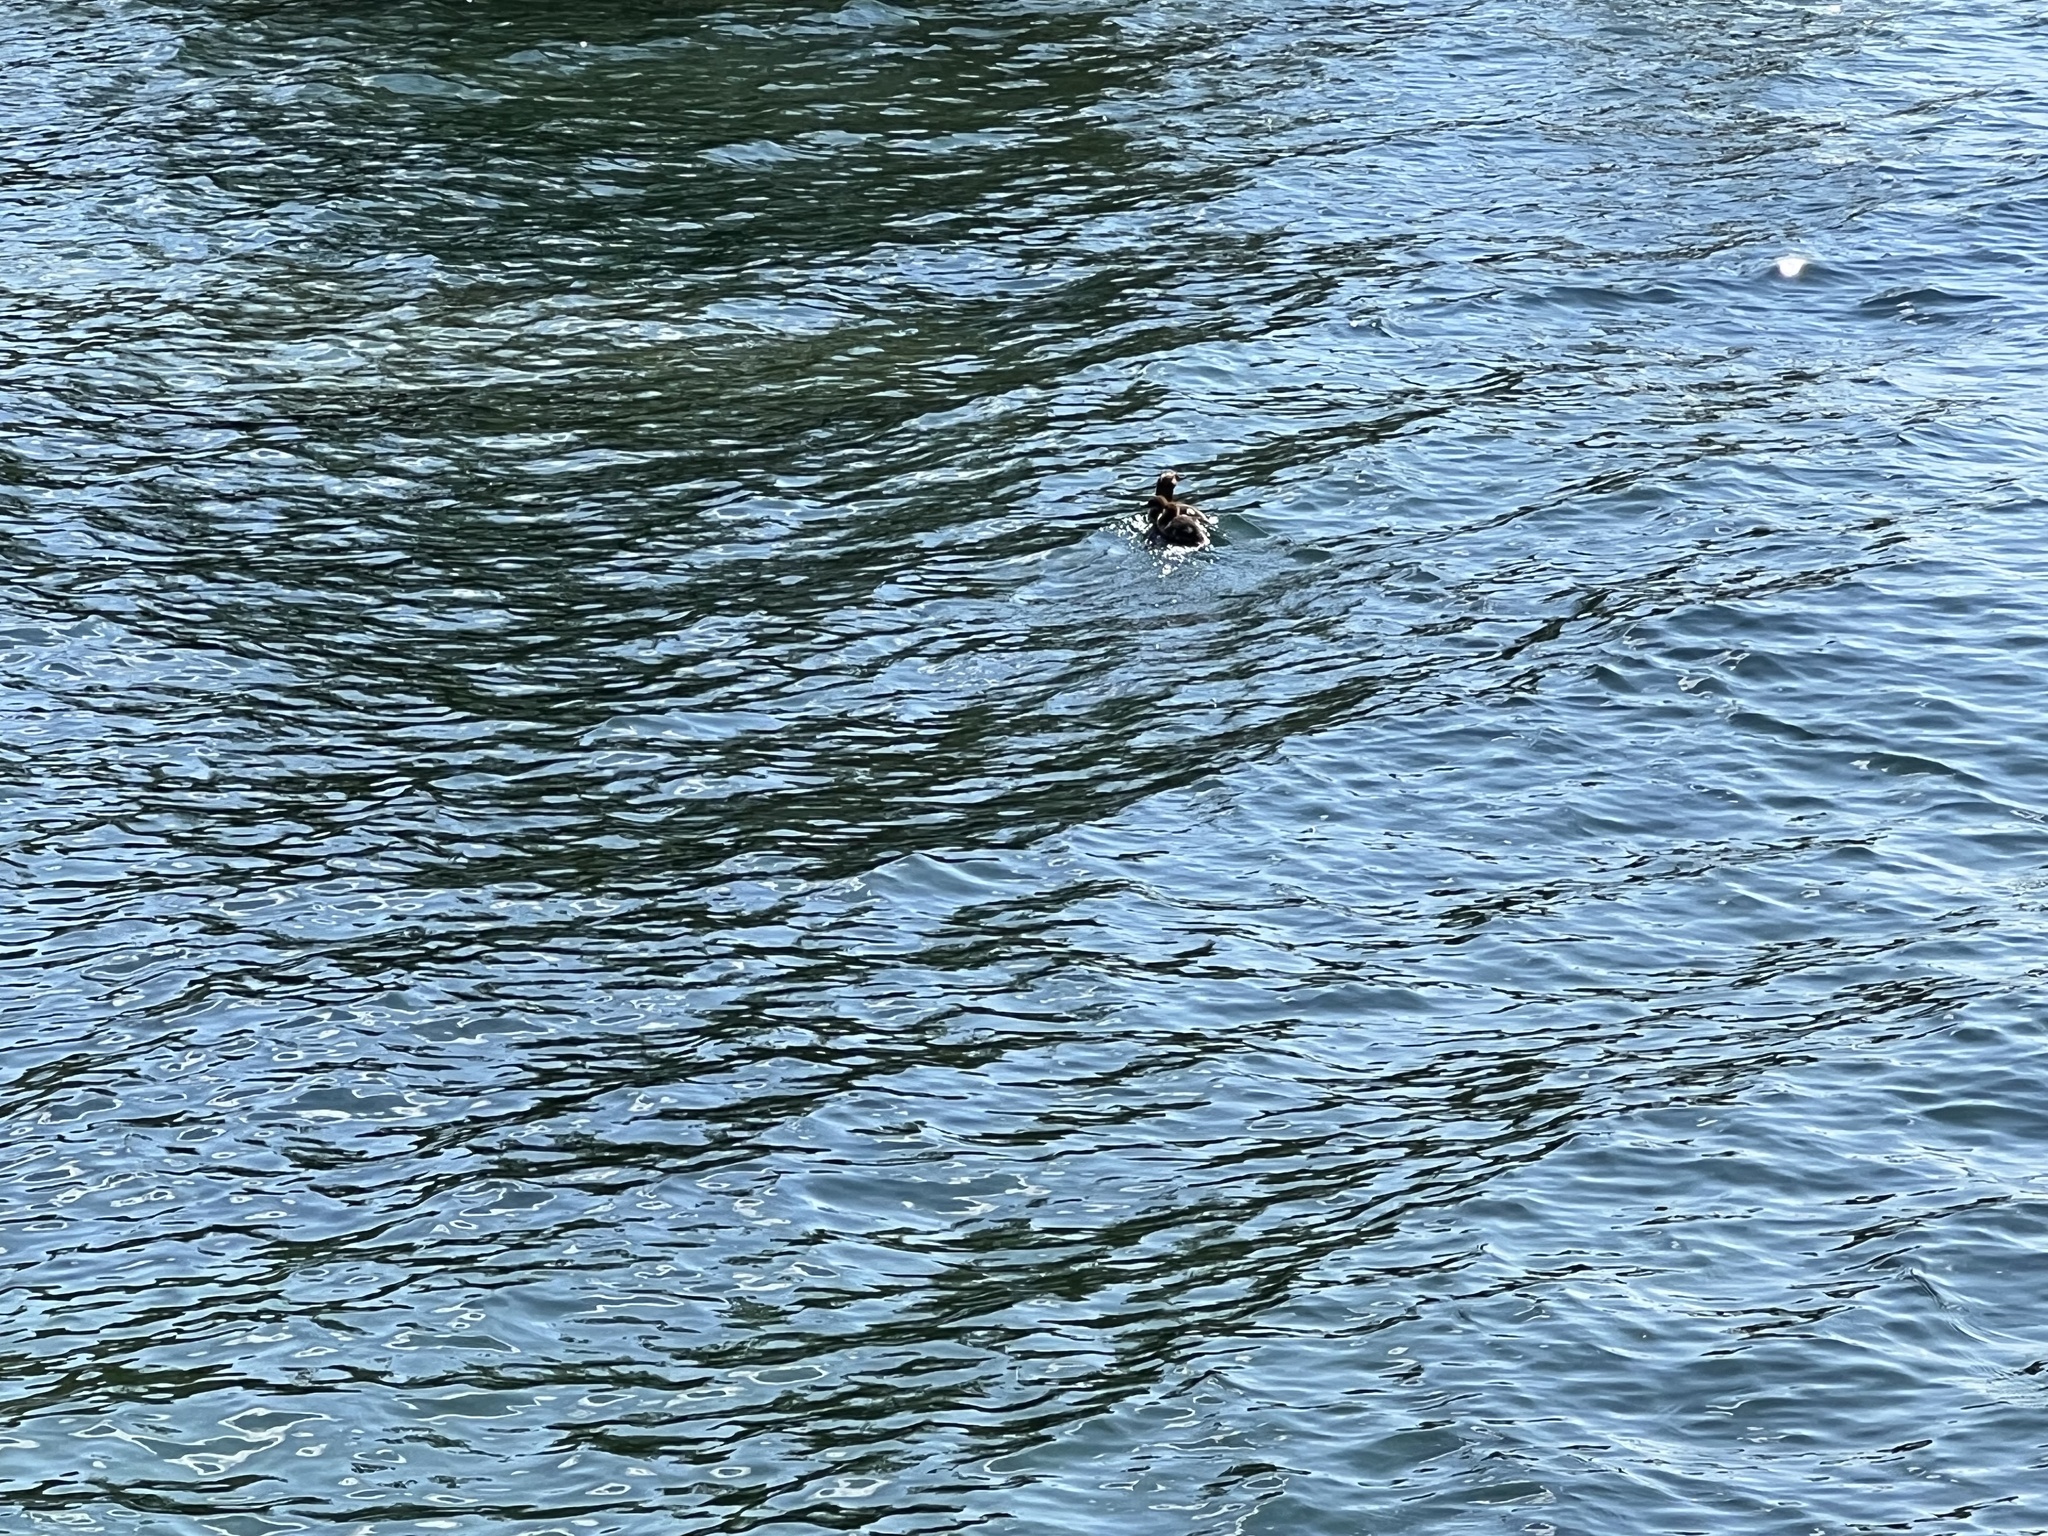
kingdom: Animalia
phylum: Chordata
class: Aves
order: Anseriformes
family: Anatidae
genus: Mergus
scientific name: Mergus merganser
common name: Common merganser
